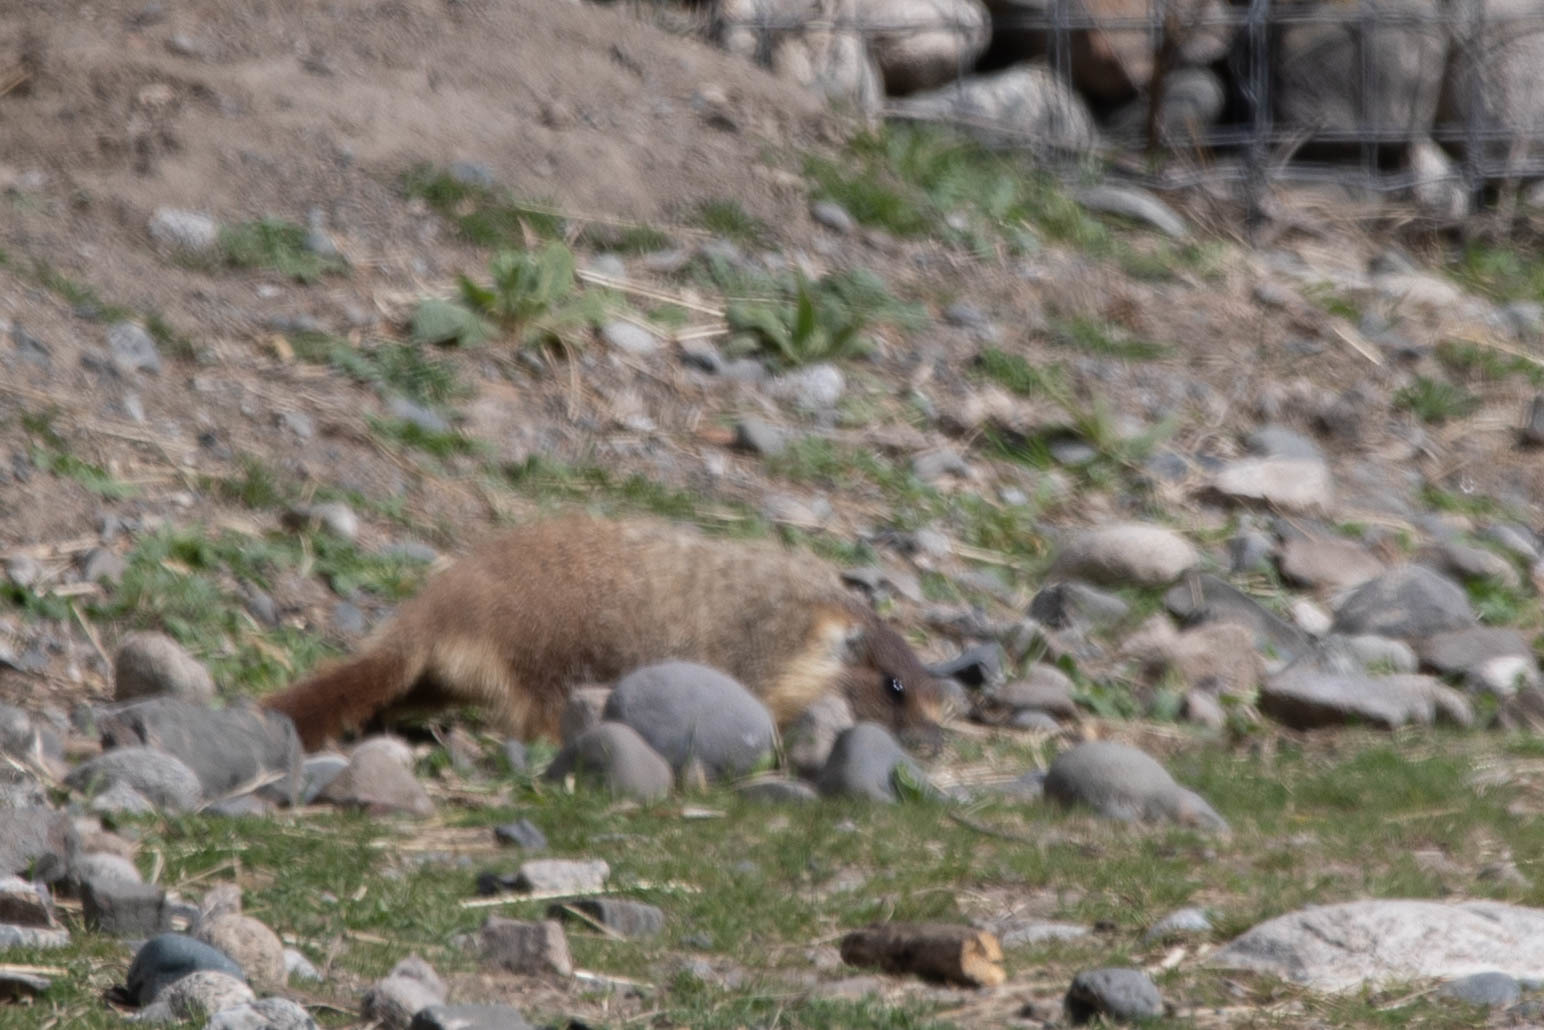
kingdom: Animalia
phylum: Chordata
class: Mammalia
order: Rodentia
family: Sciuridae
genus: Marmota
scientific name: Marmota flaviventris
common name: Yellow-bellied marmot
